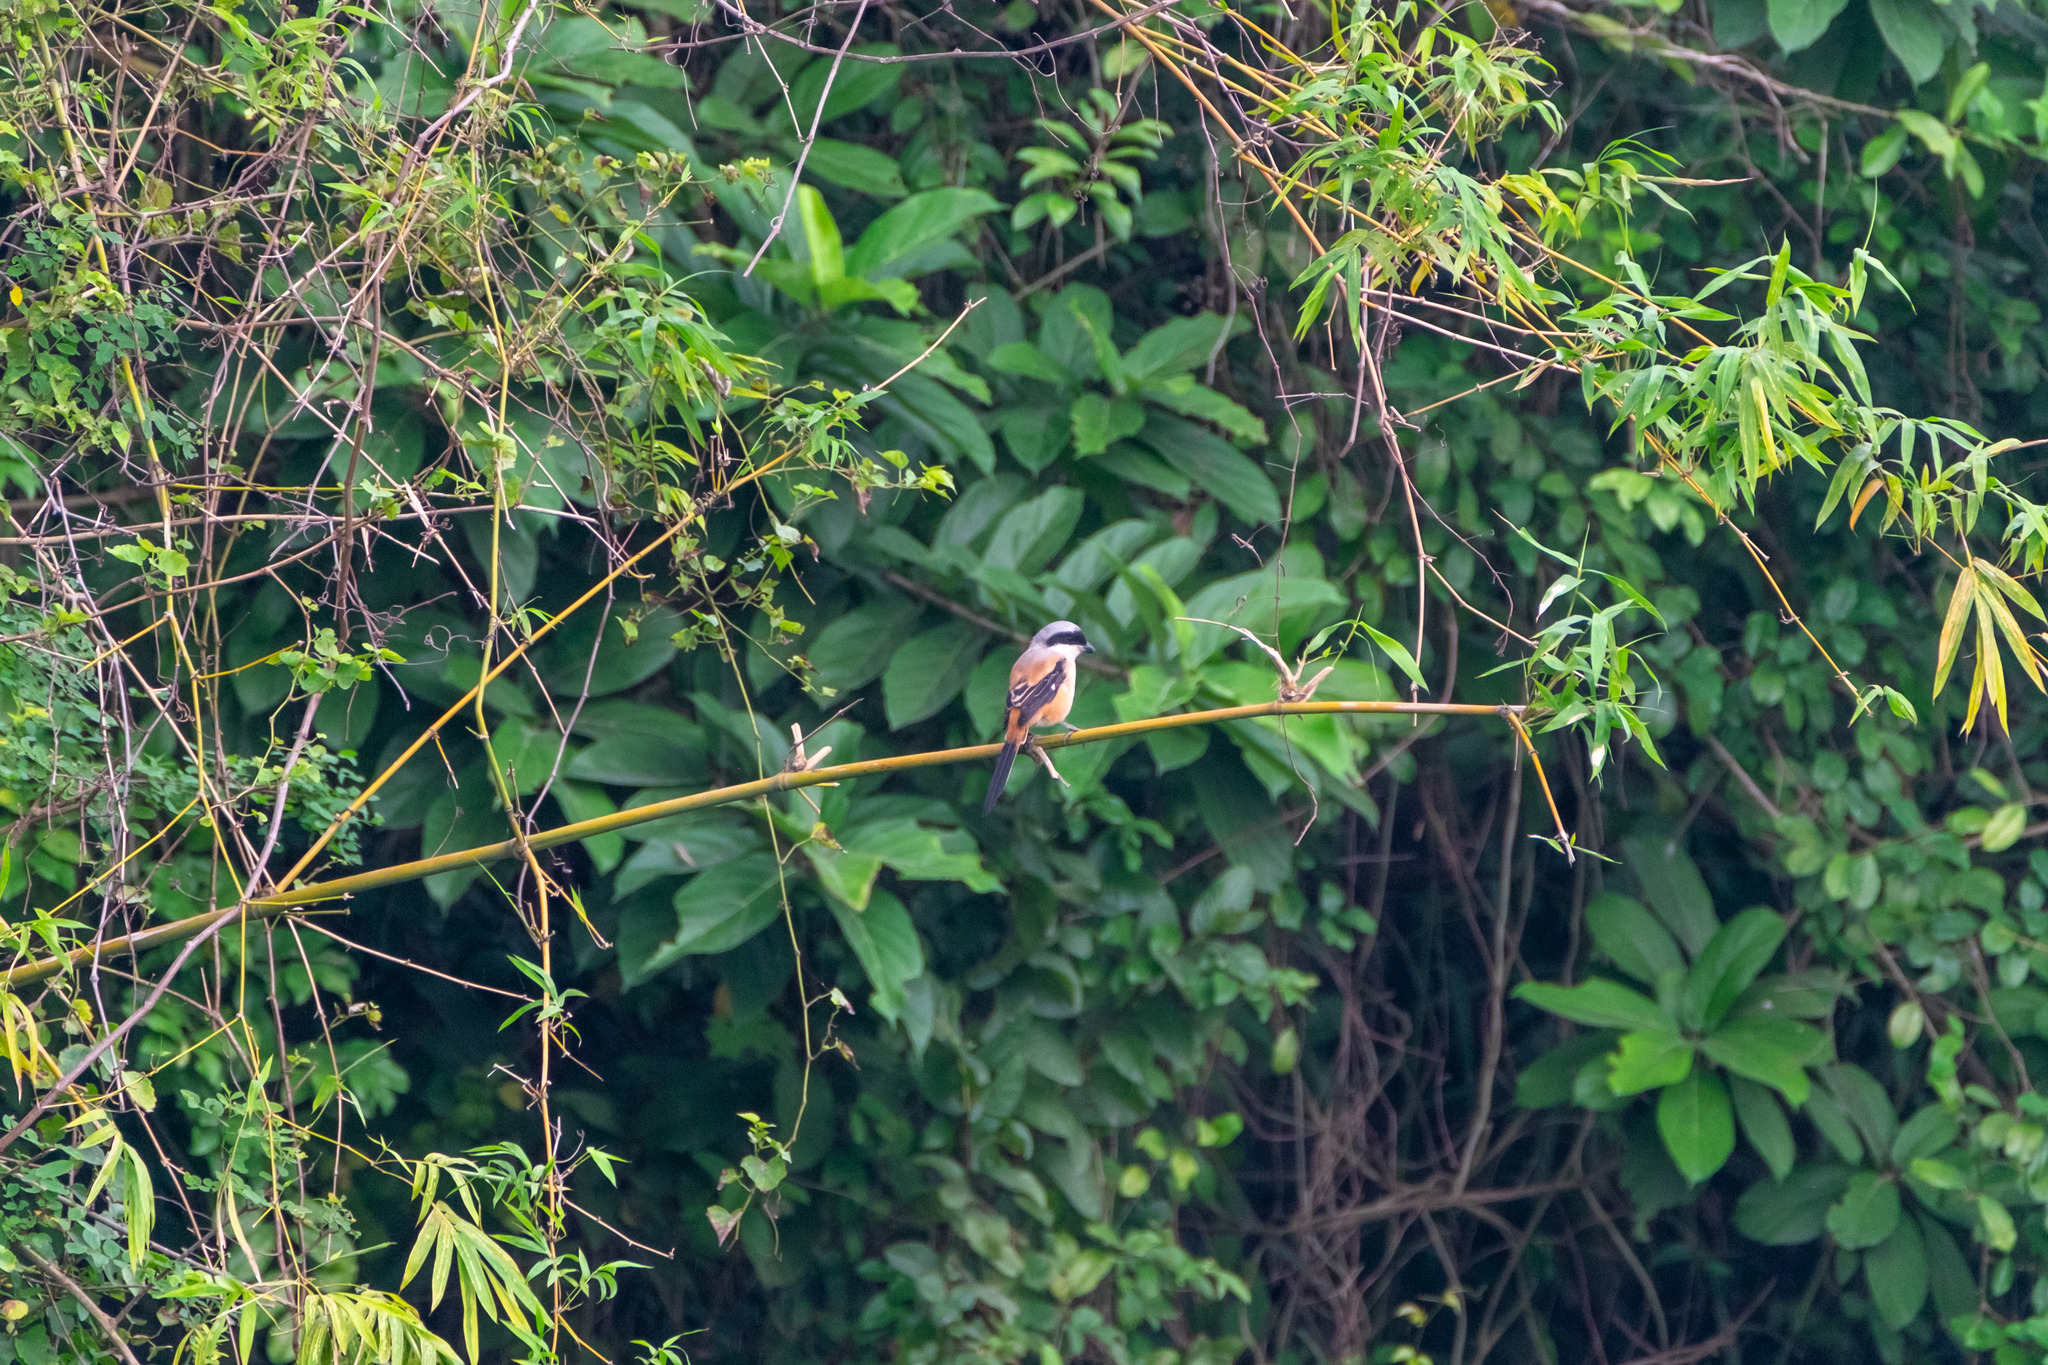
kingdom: Animalia
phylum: Chordata
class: Aves
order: Passeriformes
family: Laniidae
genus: Lanius
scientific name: Lanius schach
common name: Long-tailed shrike
